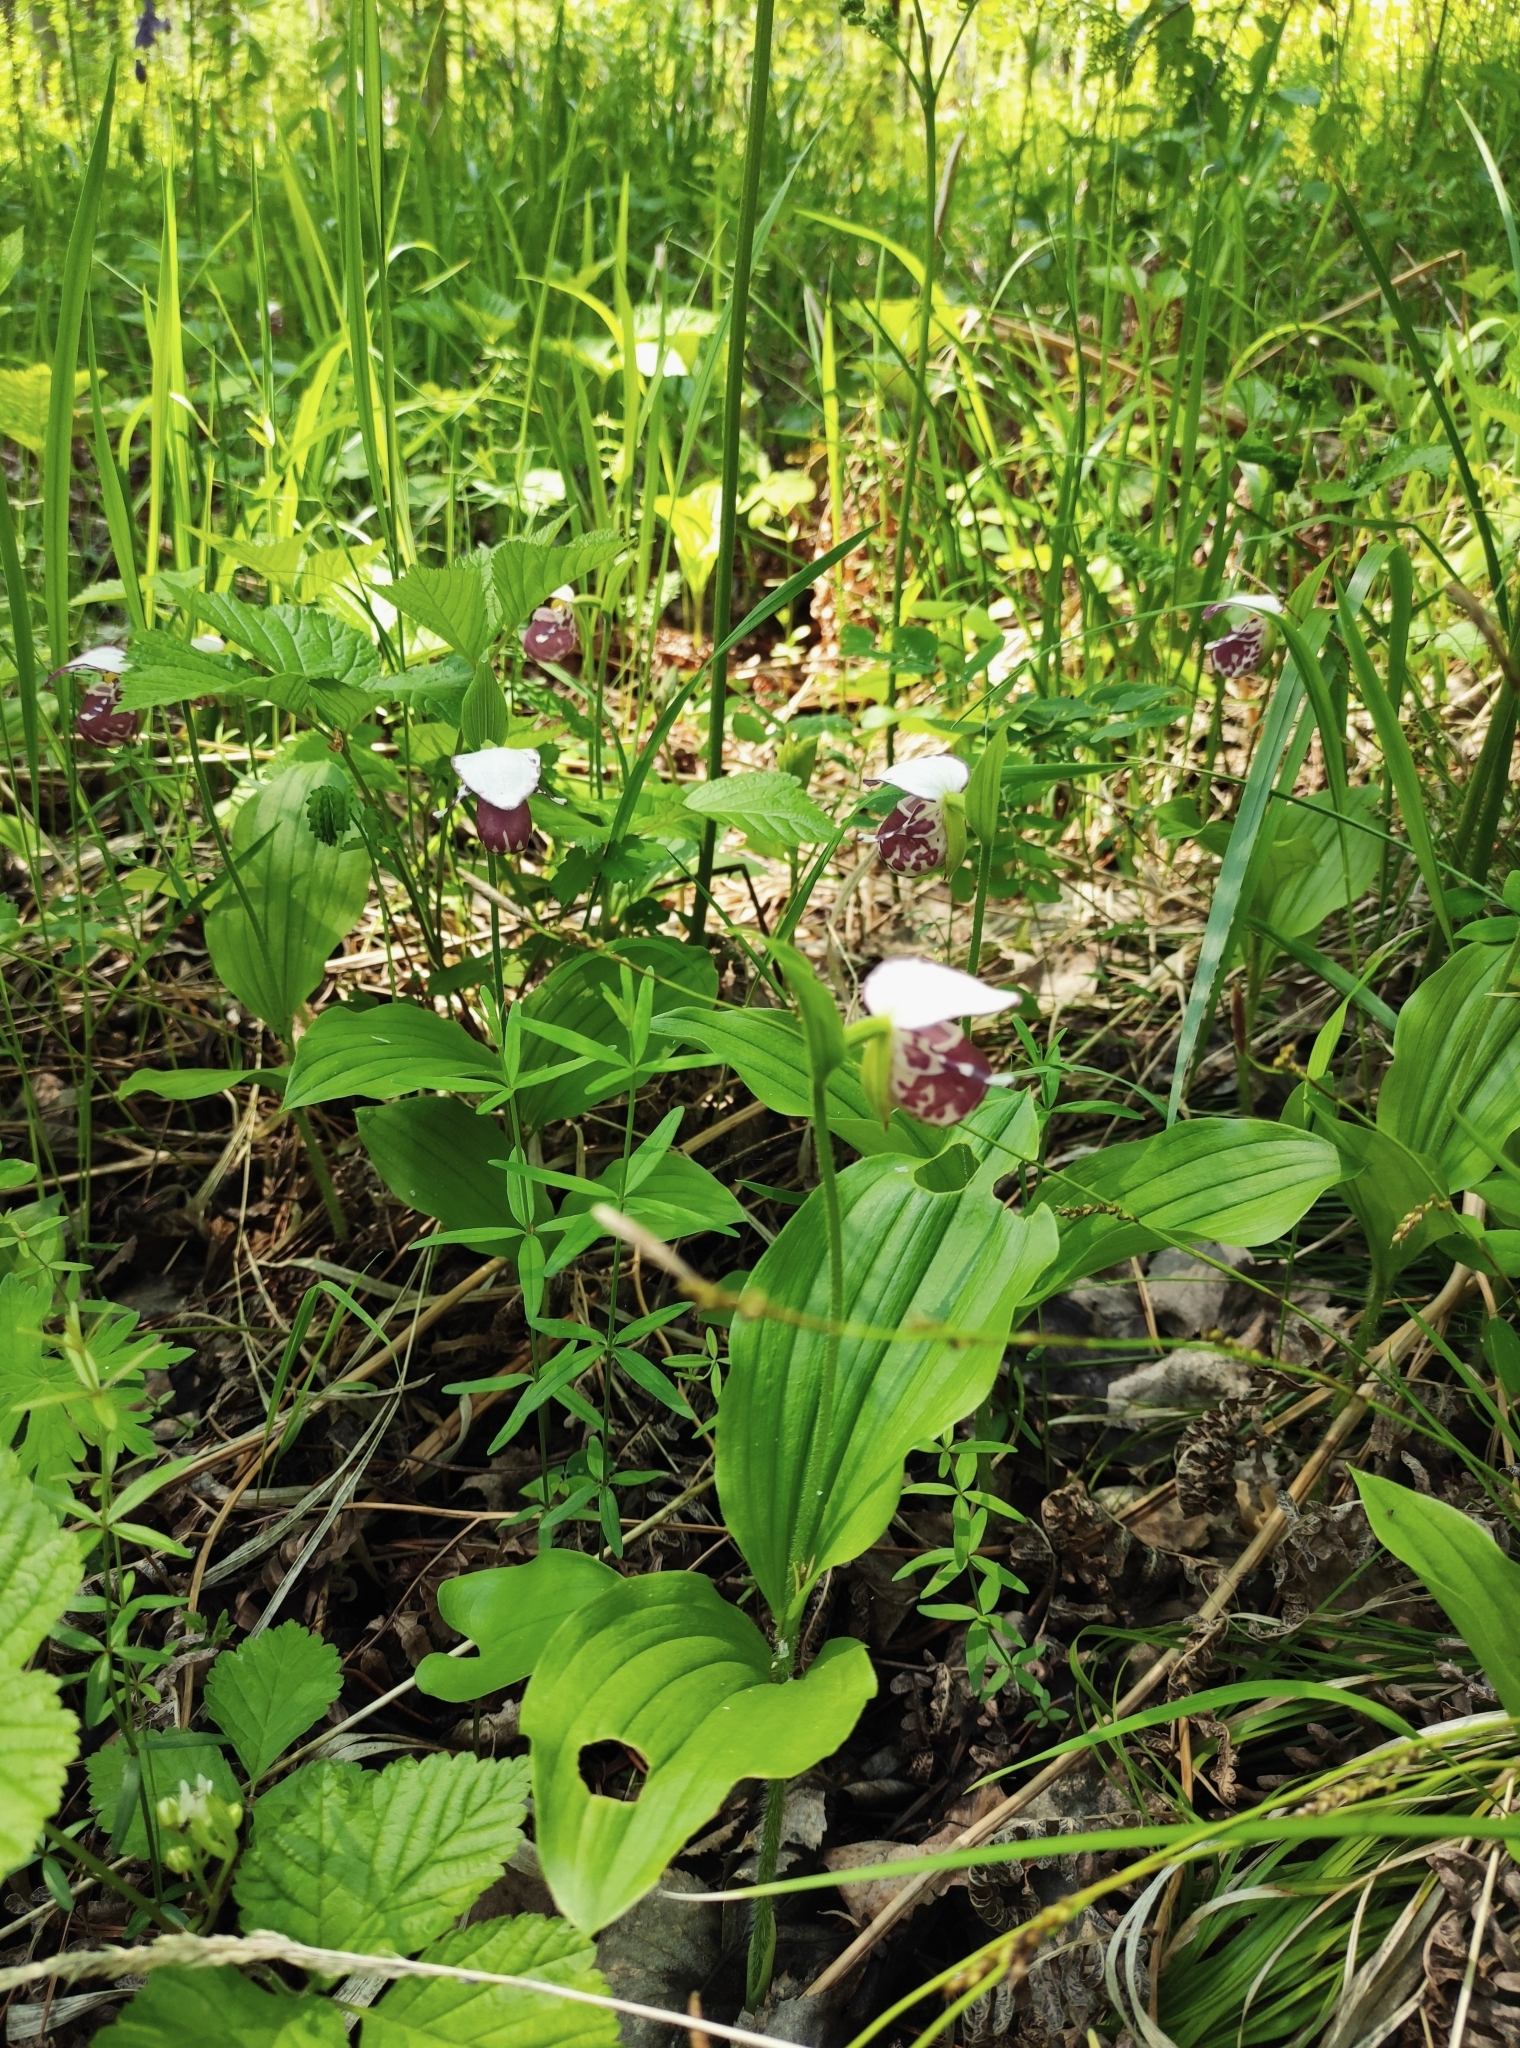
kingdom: Plantae
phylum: Tracheophyta
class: Liliopsida
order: Asparagales
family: Orchidaceae
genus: Cypripedium
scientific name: Cypripedium guttatum
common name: Pink lady slipper
